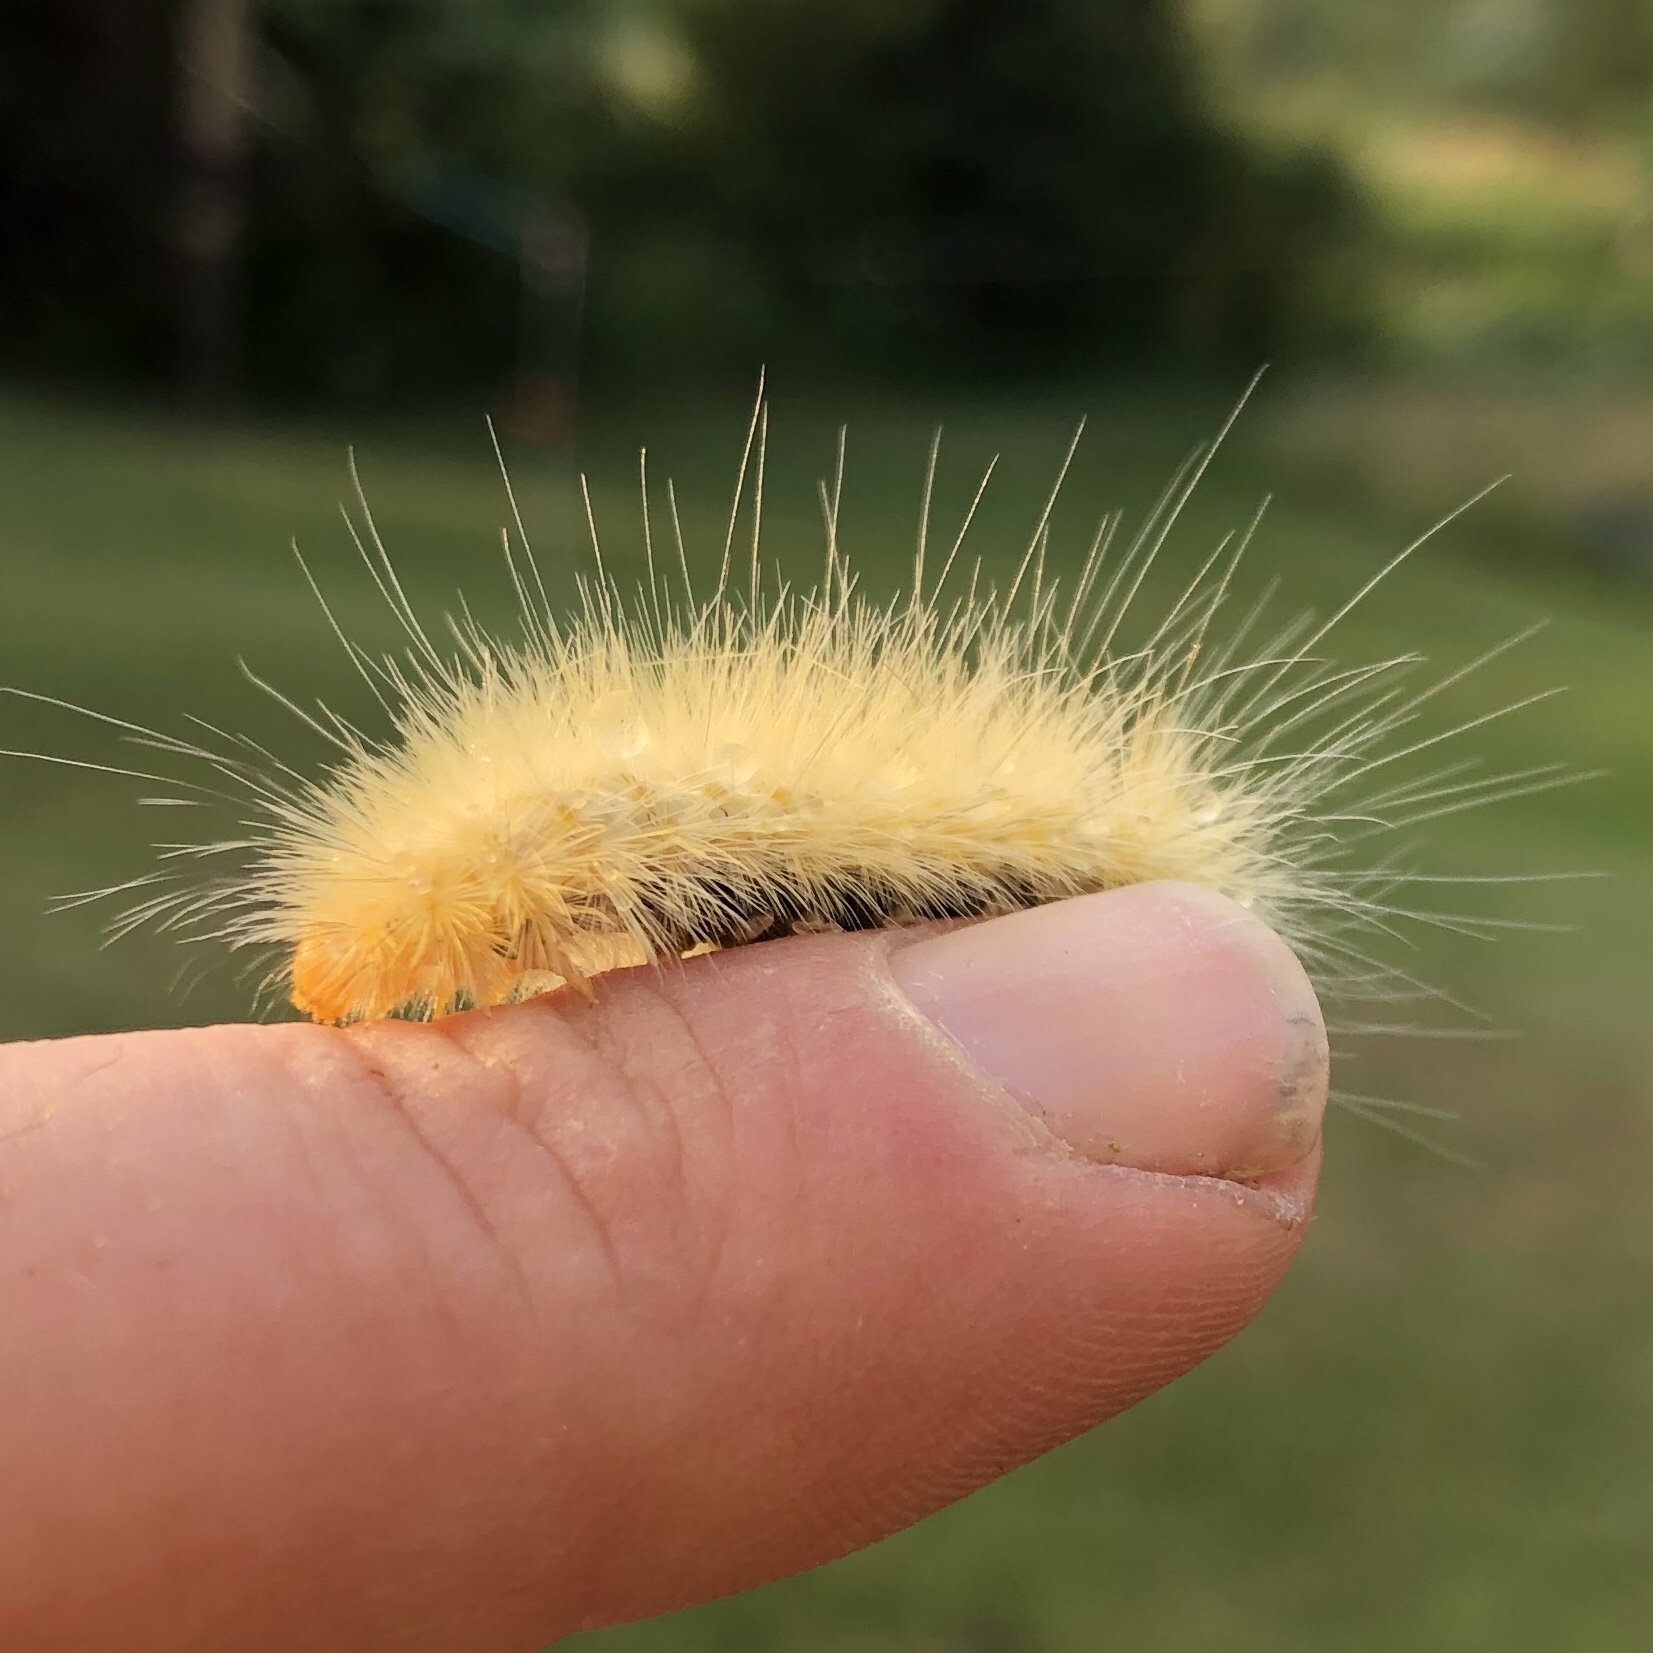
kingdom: Animalia
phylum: Arthropoda
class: Insecta
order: Lepidoptera
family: Erebidae
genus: Spilosoma
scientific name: Spilosoma virginica
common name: Virginia tiger moth
